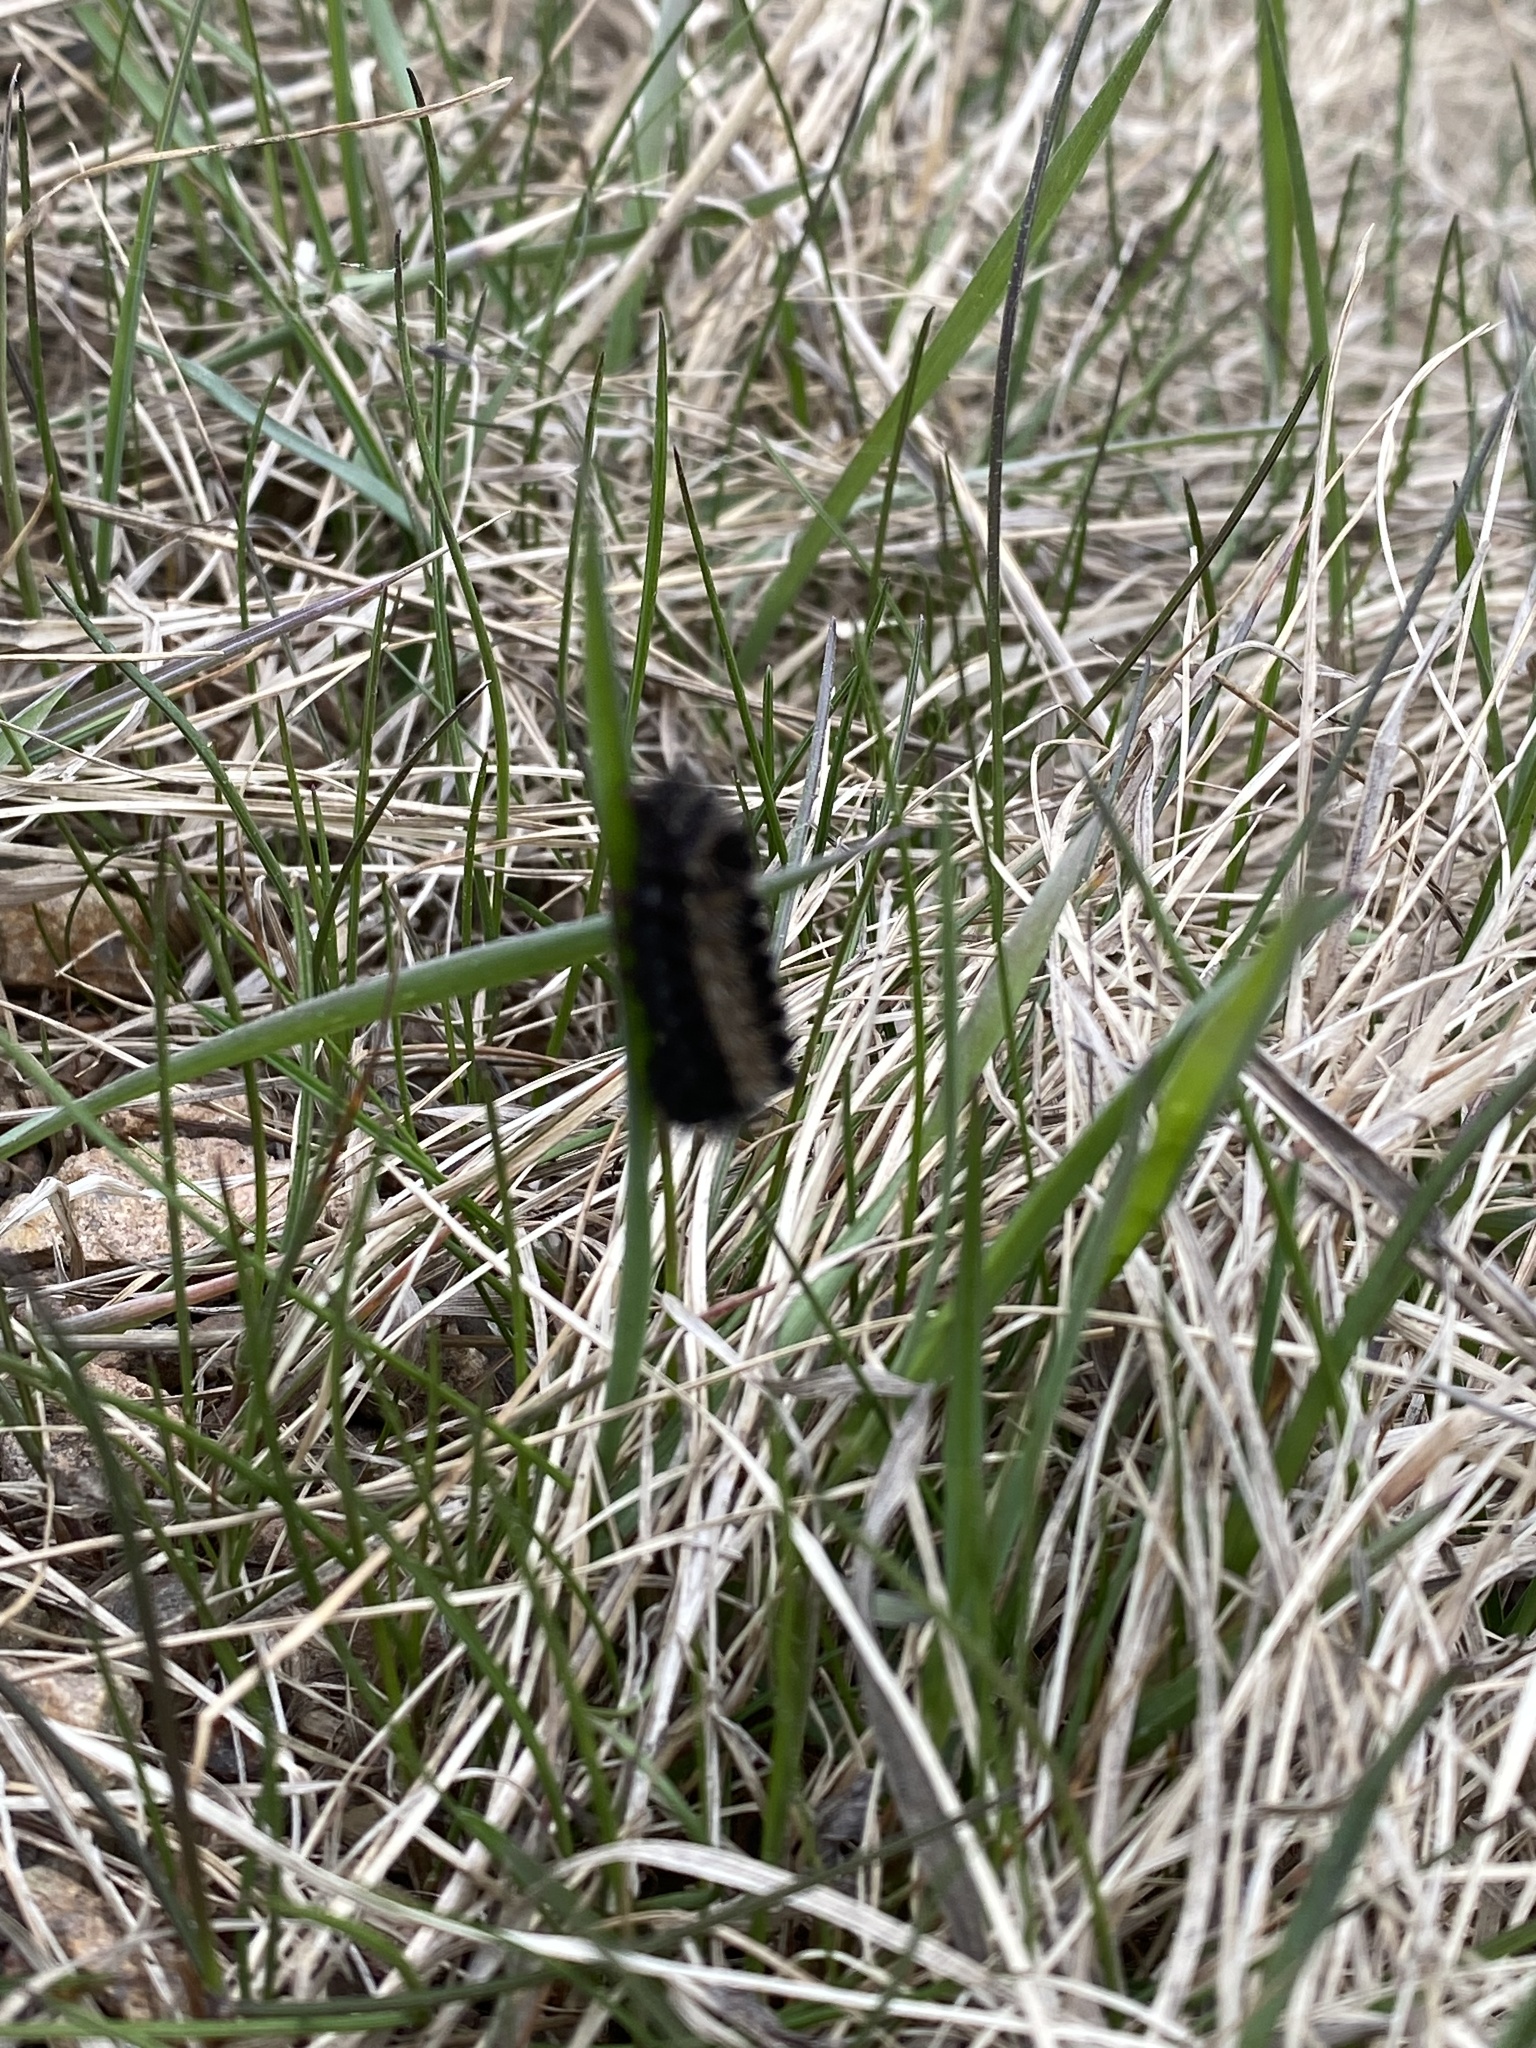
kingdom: Animalia
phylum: Arthropoda
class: Insecta
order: Lepidoptera
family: Erebidae
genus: Ctenucha
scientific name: Ctenucha virginica
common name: Virginia ctenucha moth
